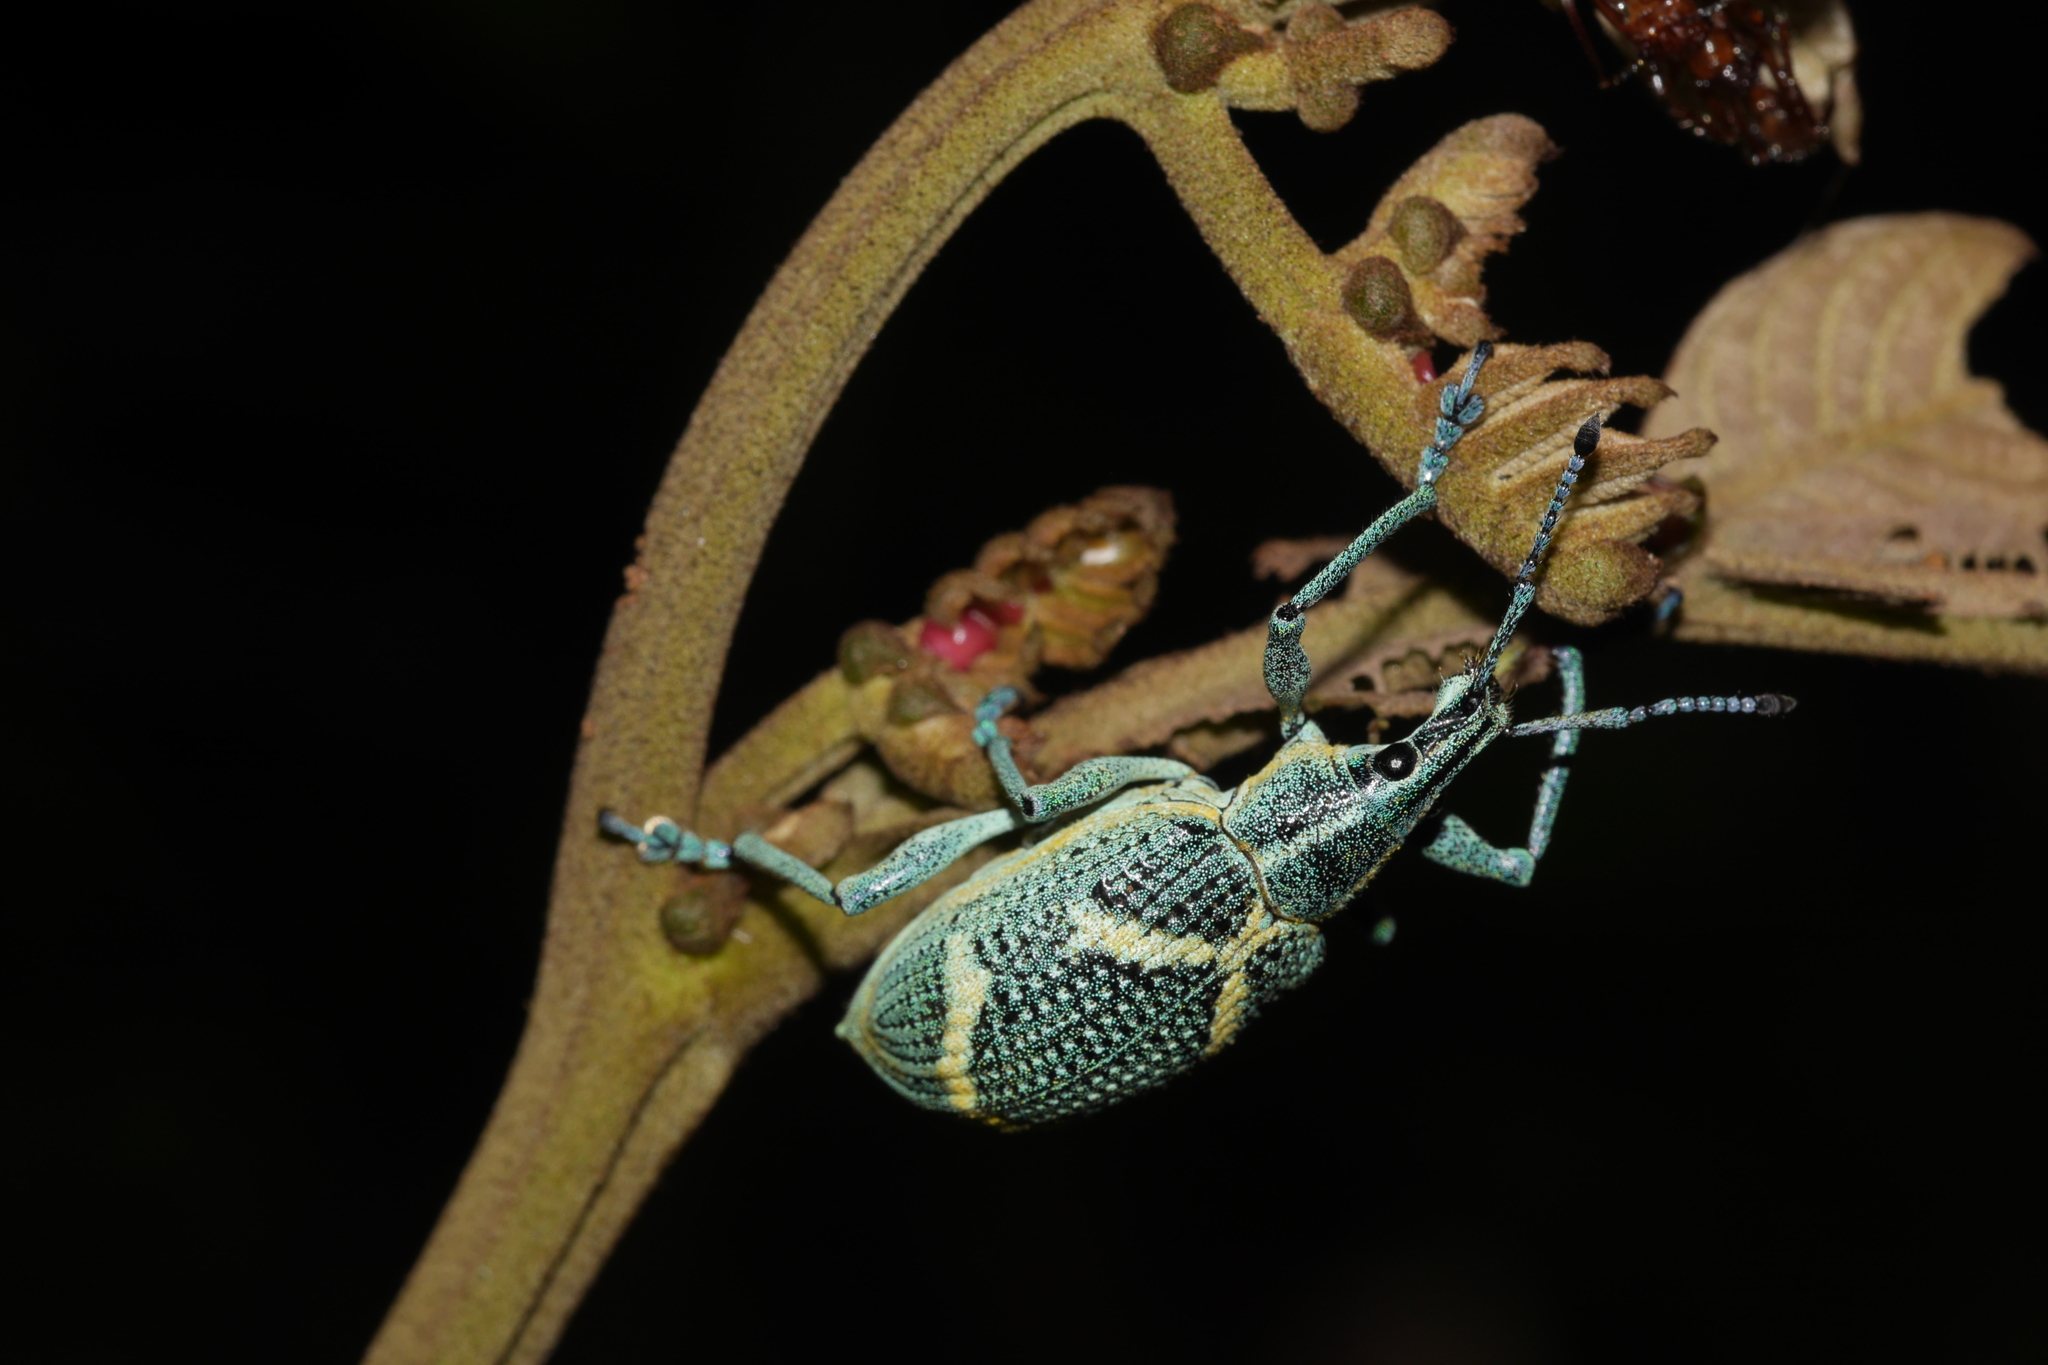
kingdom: Animalia
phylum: Arthropoda
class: Insecta
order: Coleoptera
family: Curculionidae
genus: Exophthalmus
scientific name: Exophthalmus parentheticus
